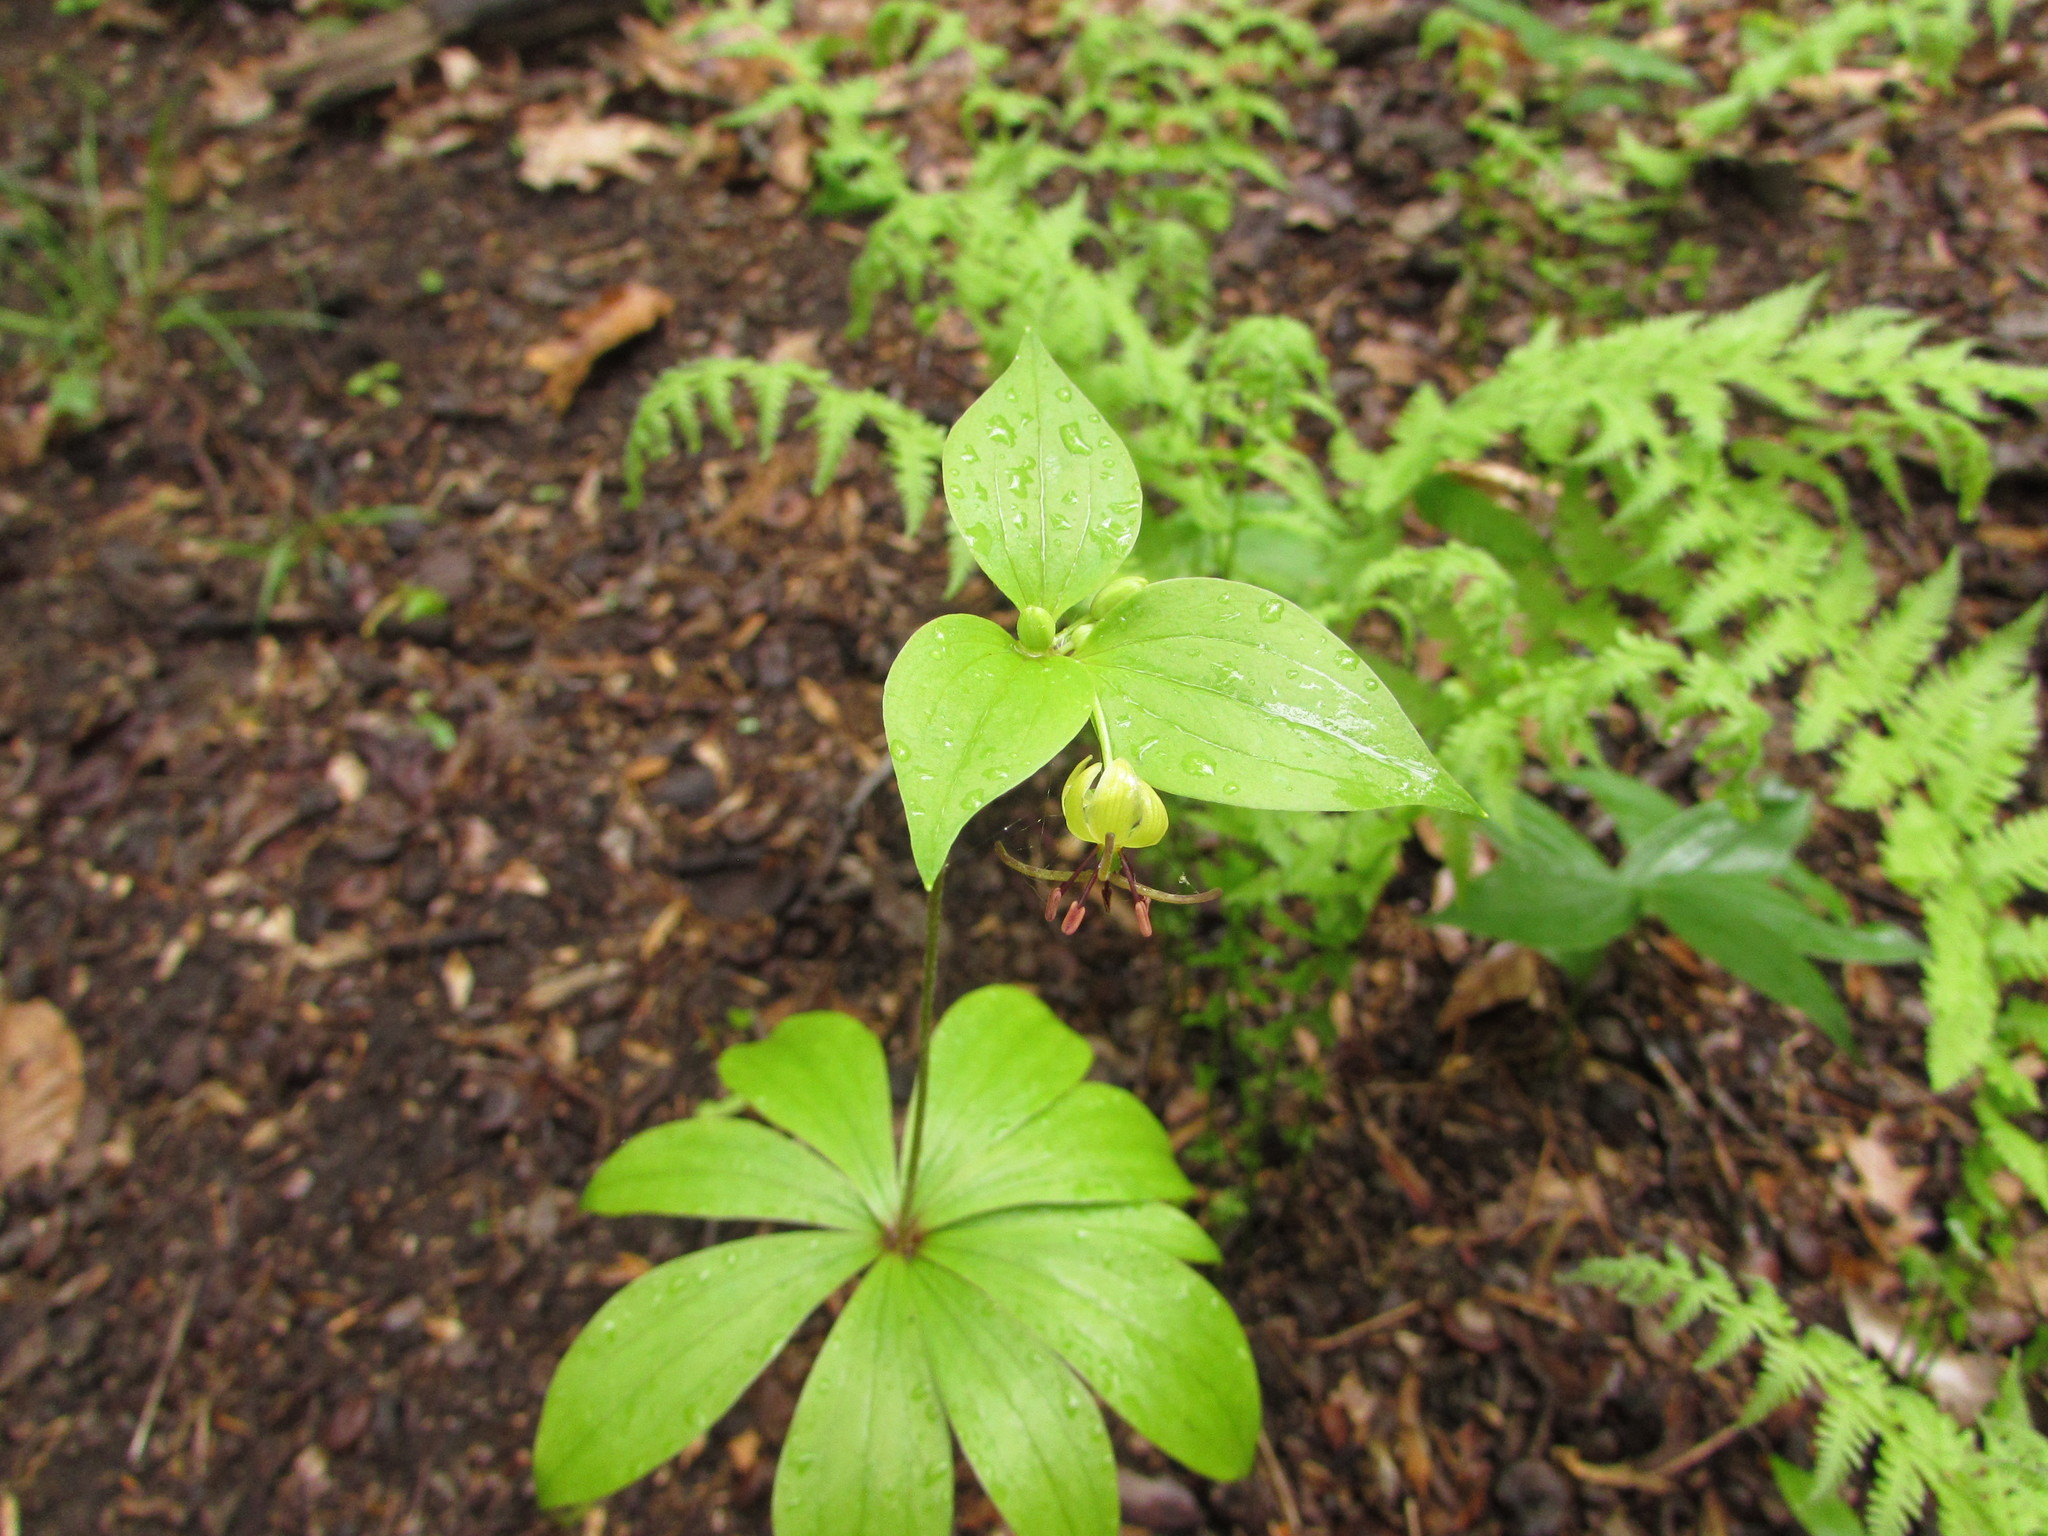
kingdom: Plantae
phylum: Tracheophyta
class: Liliopsida
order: Liliales
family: Liliaceae
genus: Medeola
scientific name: Medeola virginiana
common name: Indian cucumber-root
